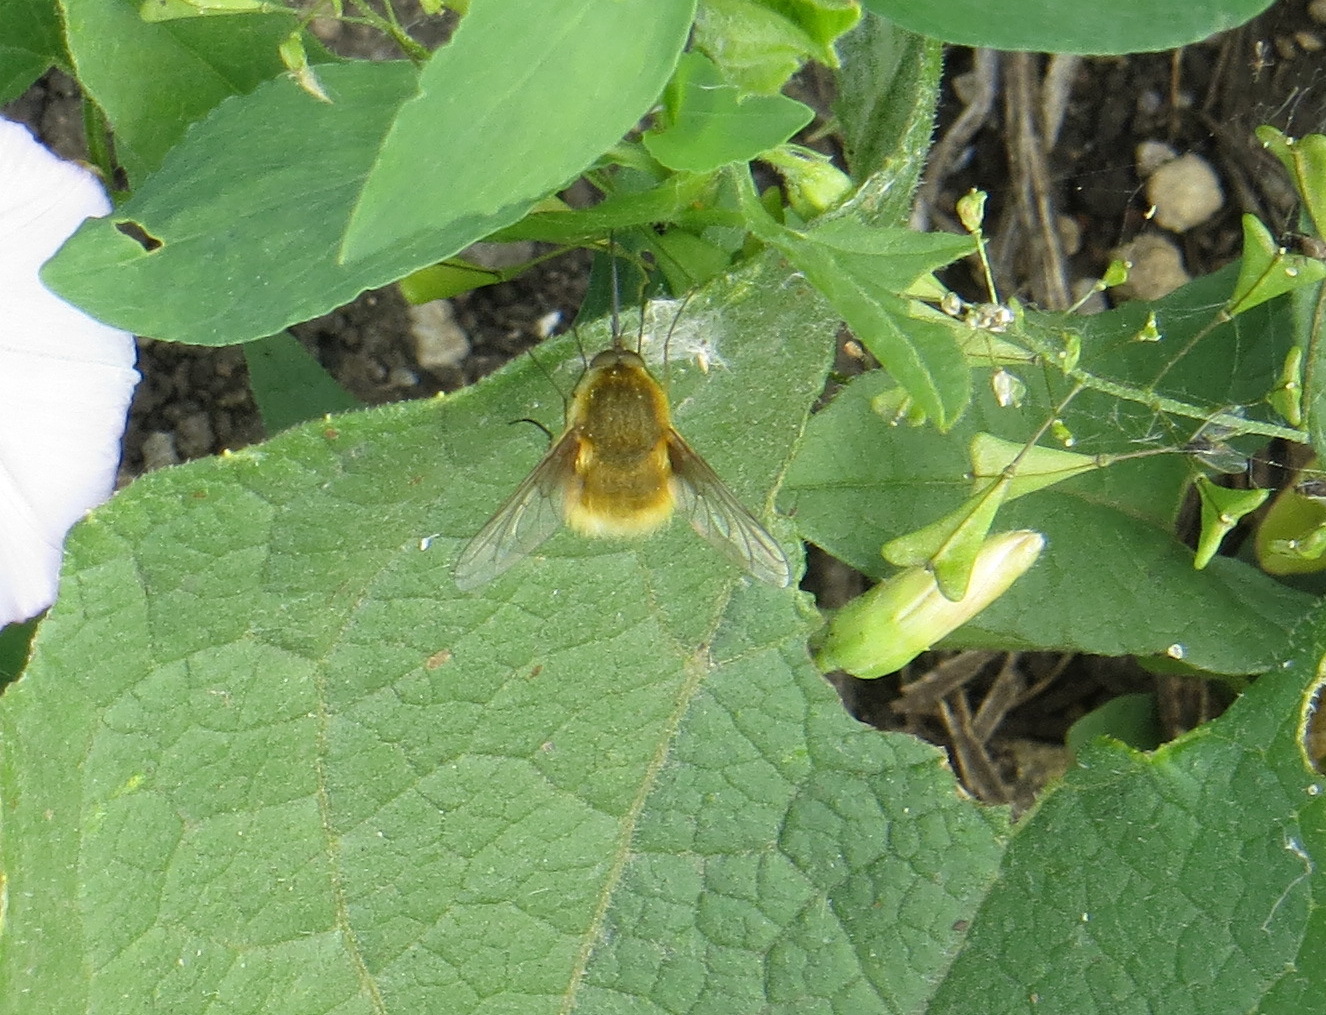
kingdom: Animalia
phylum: Arthropoda
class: Insecta
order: Diptera
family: Bombyliidae
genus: Bombylius
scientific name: Bombylius posticus
